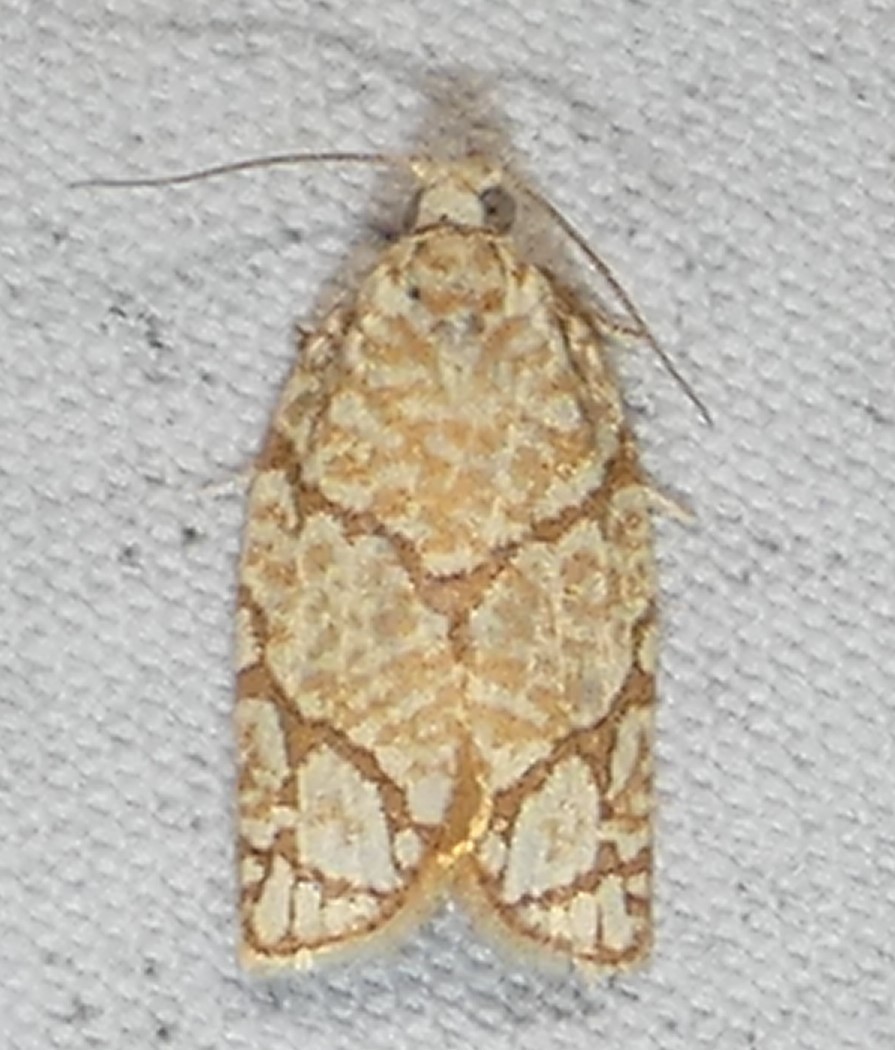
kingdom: Animalia
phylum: Arthropoda
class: Insecta
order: Lepidoptera
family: Tortricidae
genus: Argyrotaenia
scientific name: Argyrotaenia quercifoliana
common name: Yellow-winged oak leafroller moth
